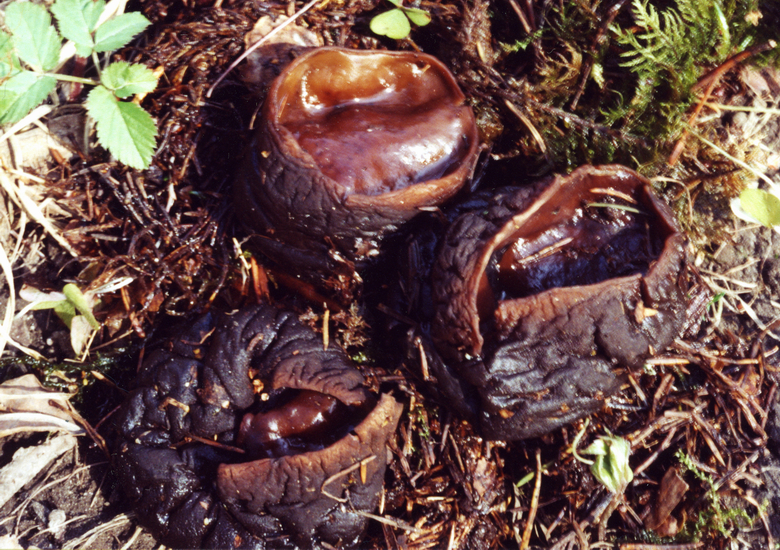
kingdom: Fungi
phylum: Ascomycota
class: Pezizomycetes
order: Pezizales
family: Sarcosomataceae
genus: Sarcosoma
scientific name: Sarcosoma globosum
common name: Charred-pancake cup
